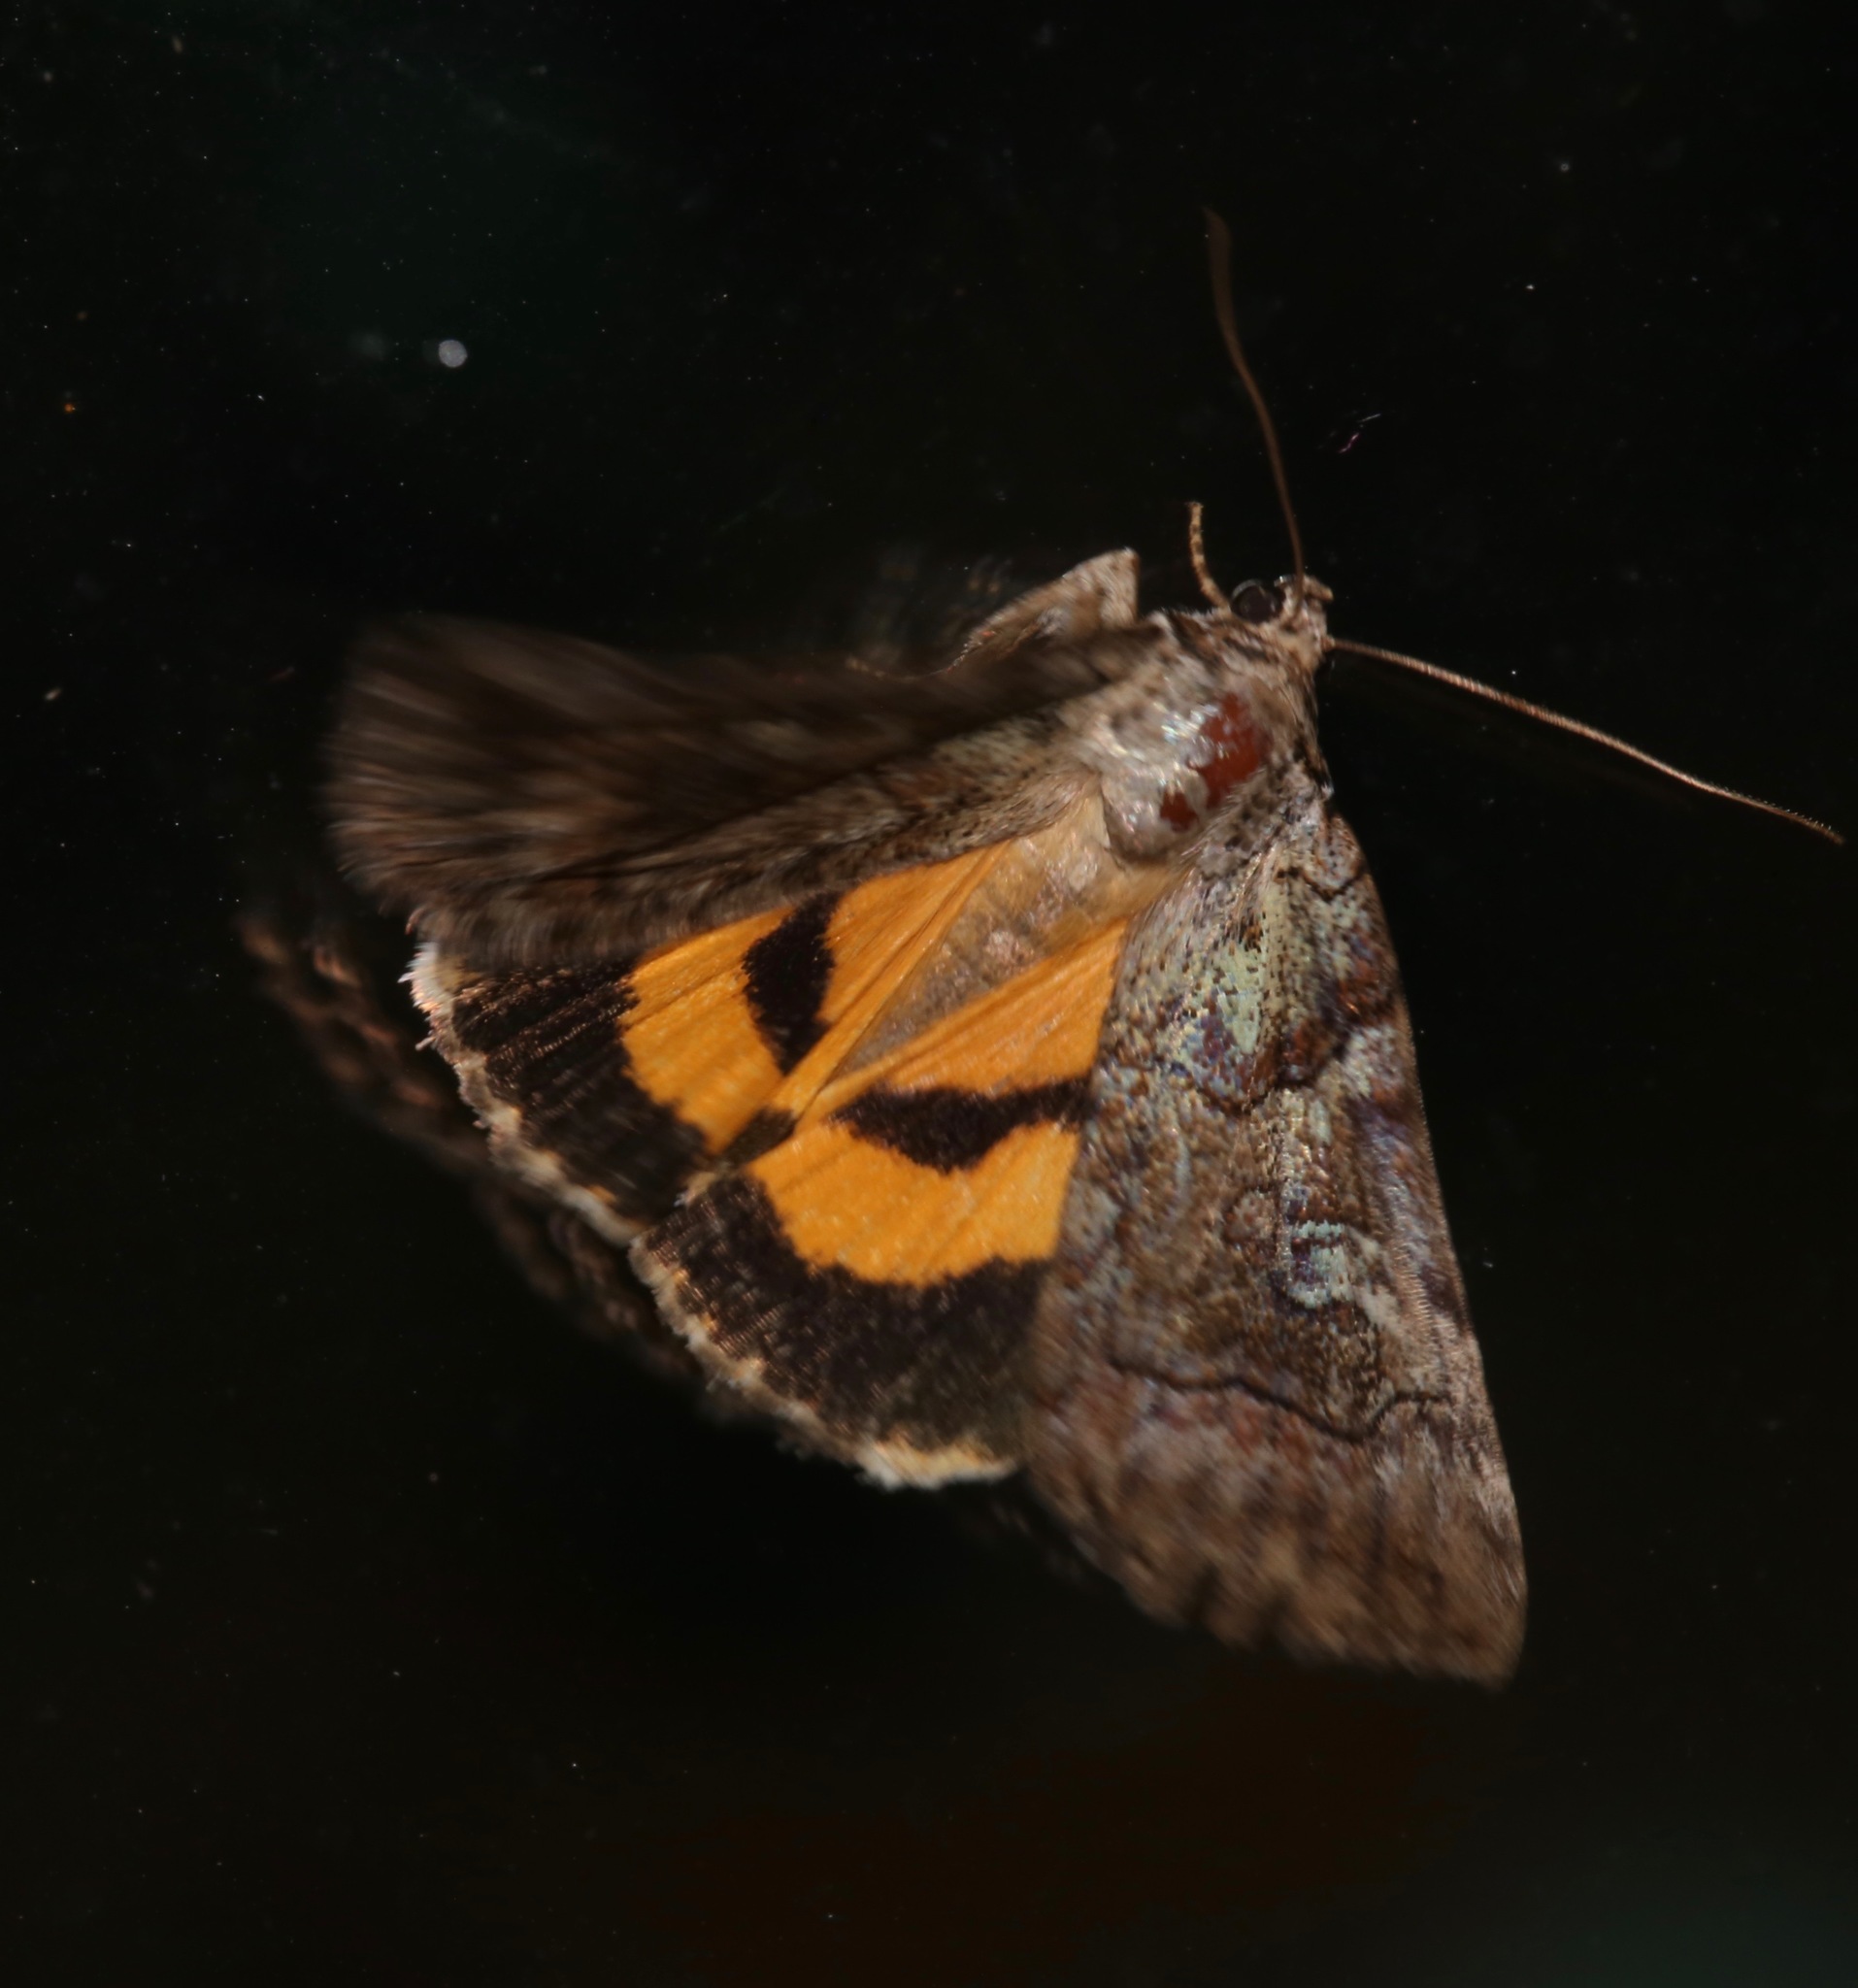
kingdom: Animalia
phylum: Arthropoda
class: Insecta
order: Lepidoptera
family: Erebidae
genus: Catocala
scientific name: Catocala similis
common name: Similar underwing
